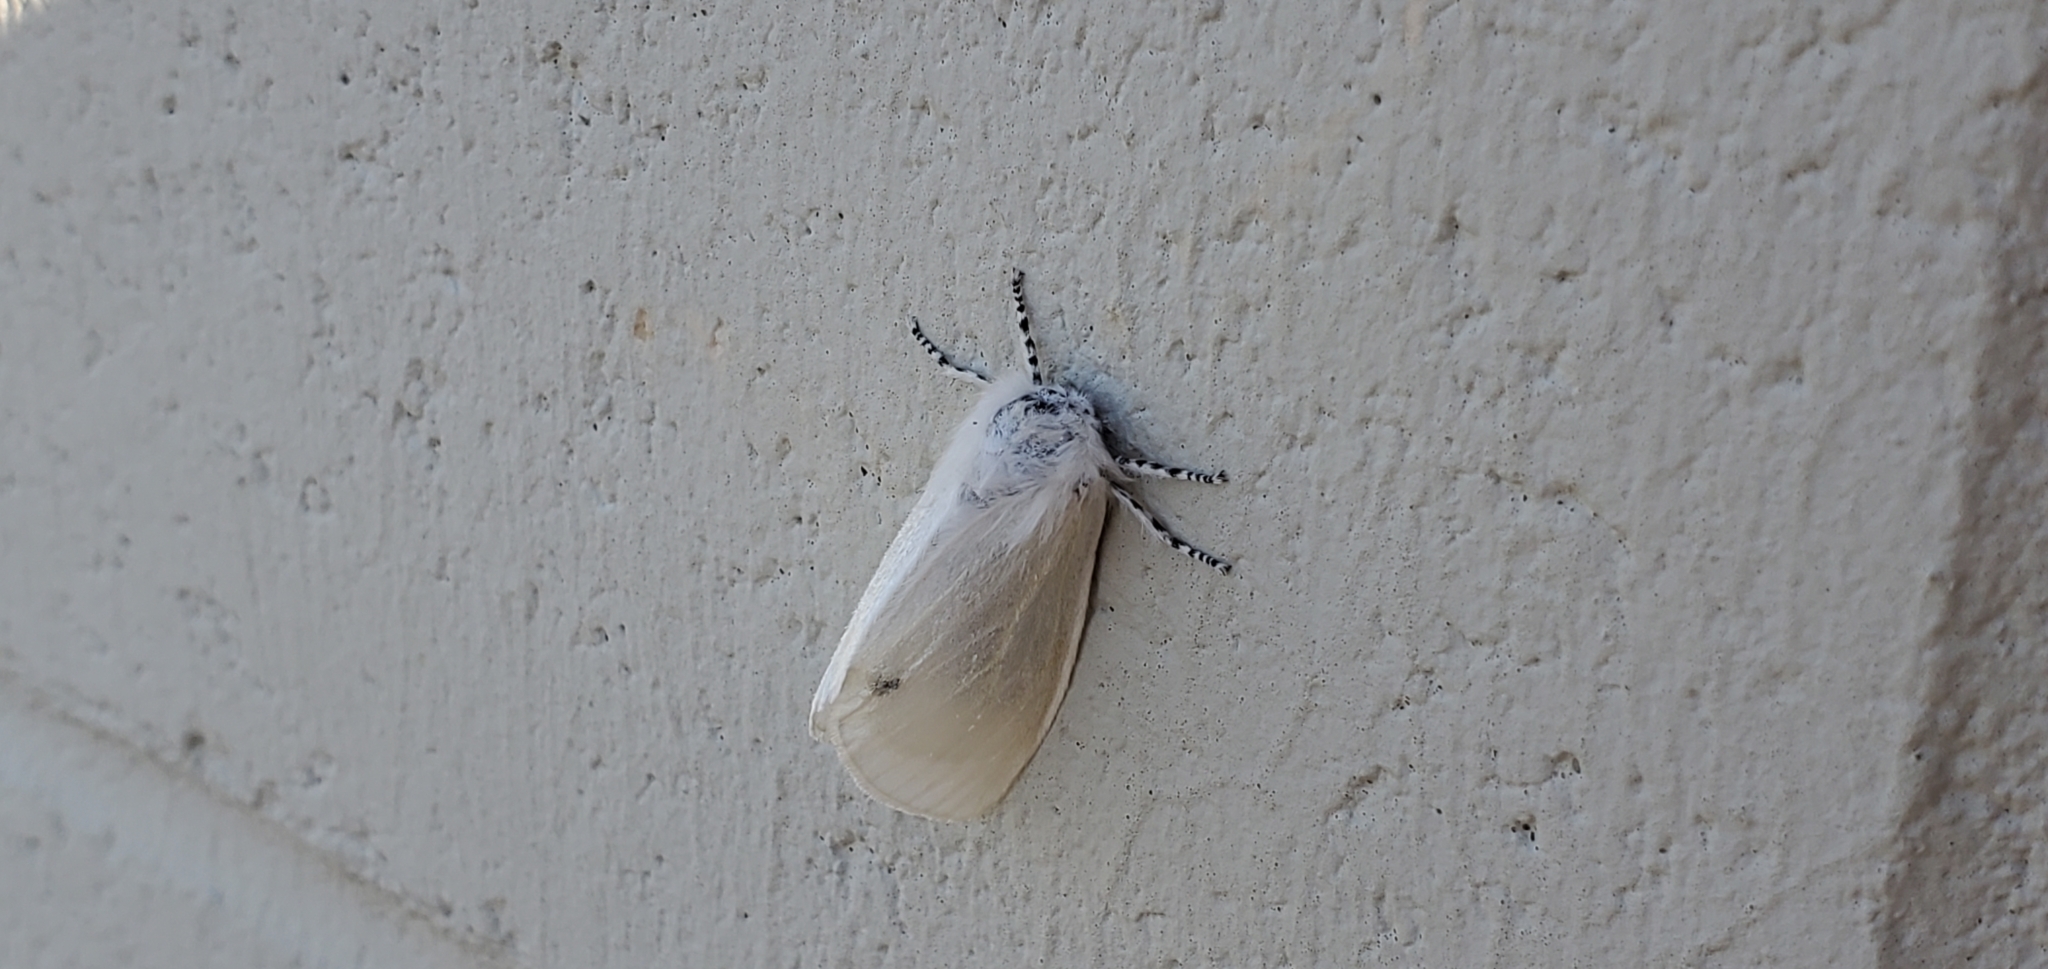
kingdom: Animalia
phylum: Arthropoda
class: Insecta
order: Lepidoptera
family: Erebidae
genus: Leucoma
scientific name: Leucoma salicis
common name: White satin moth
